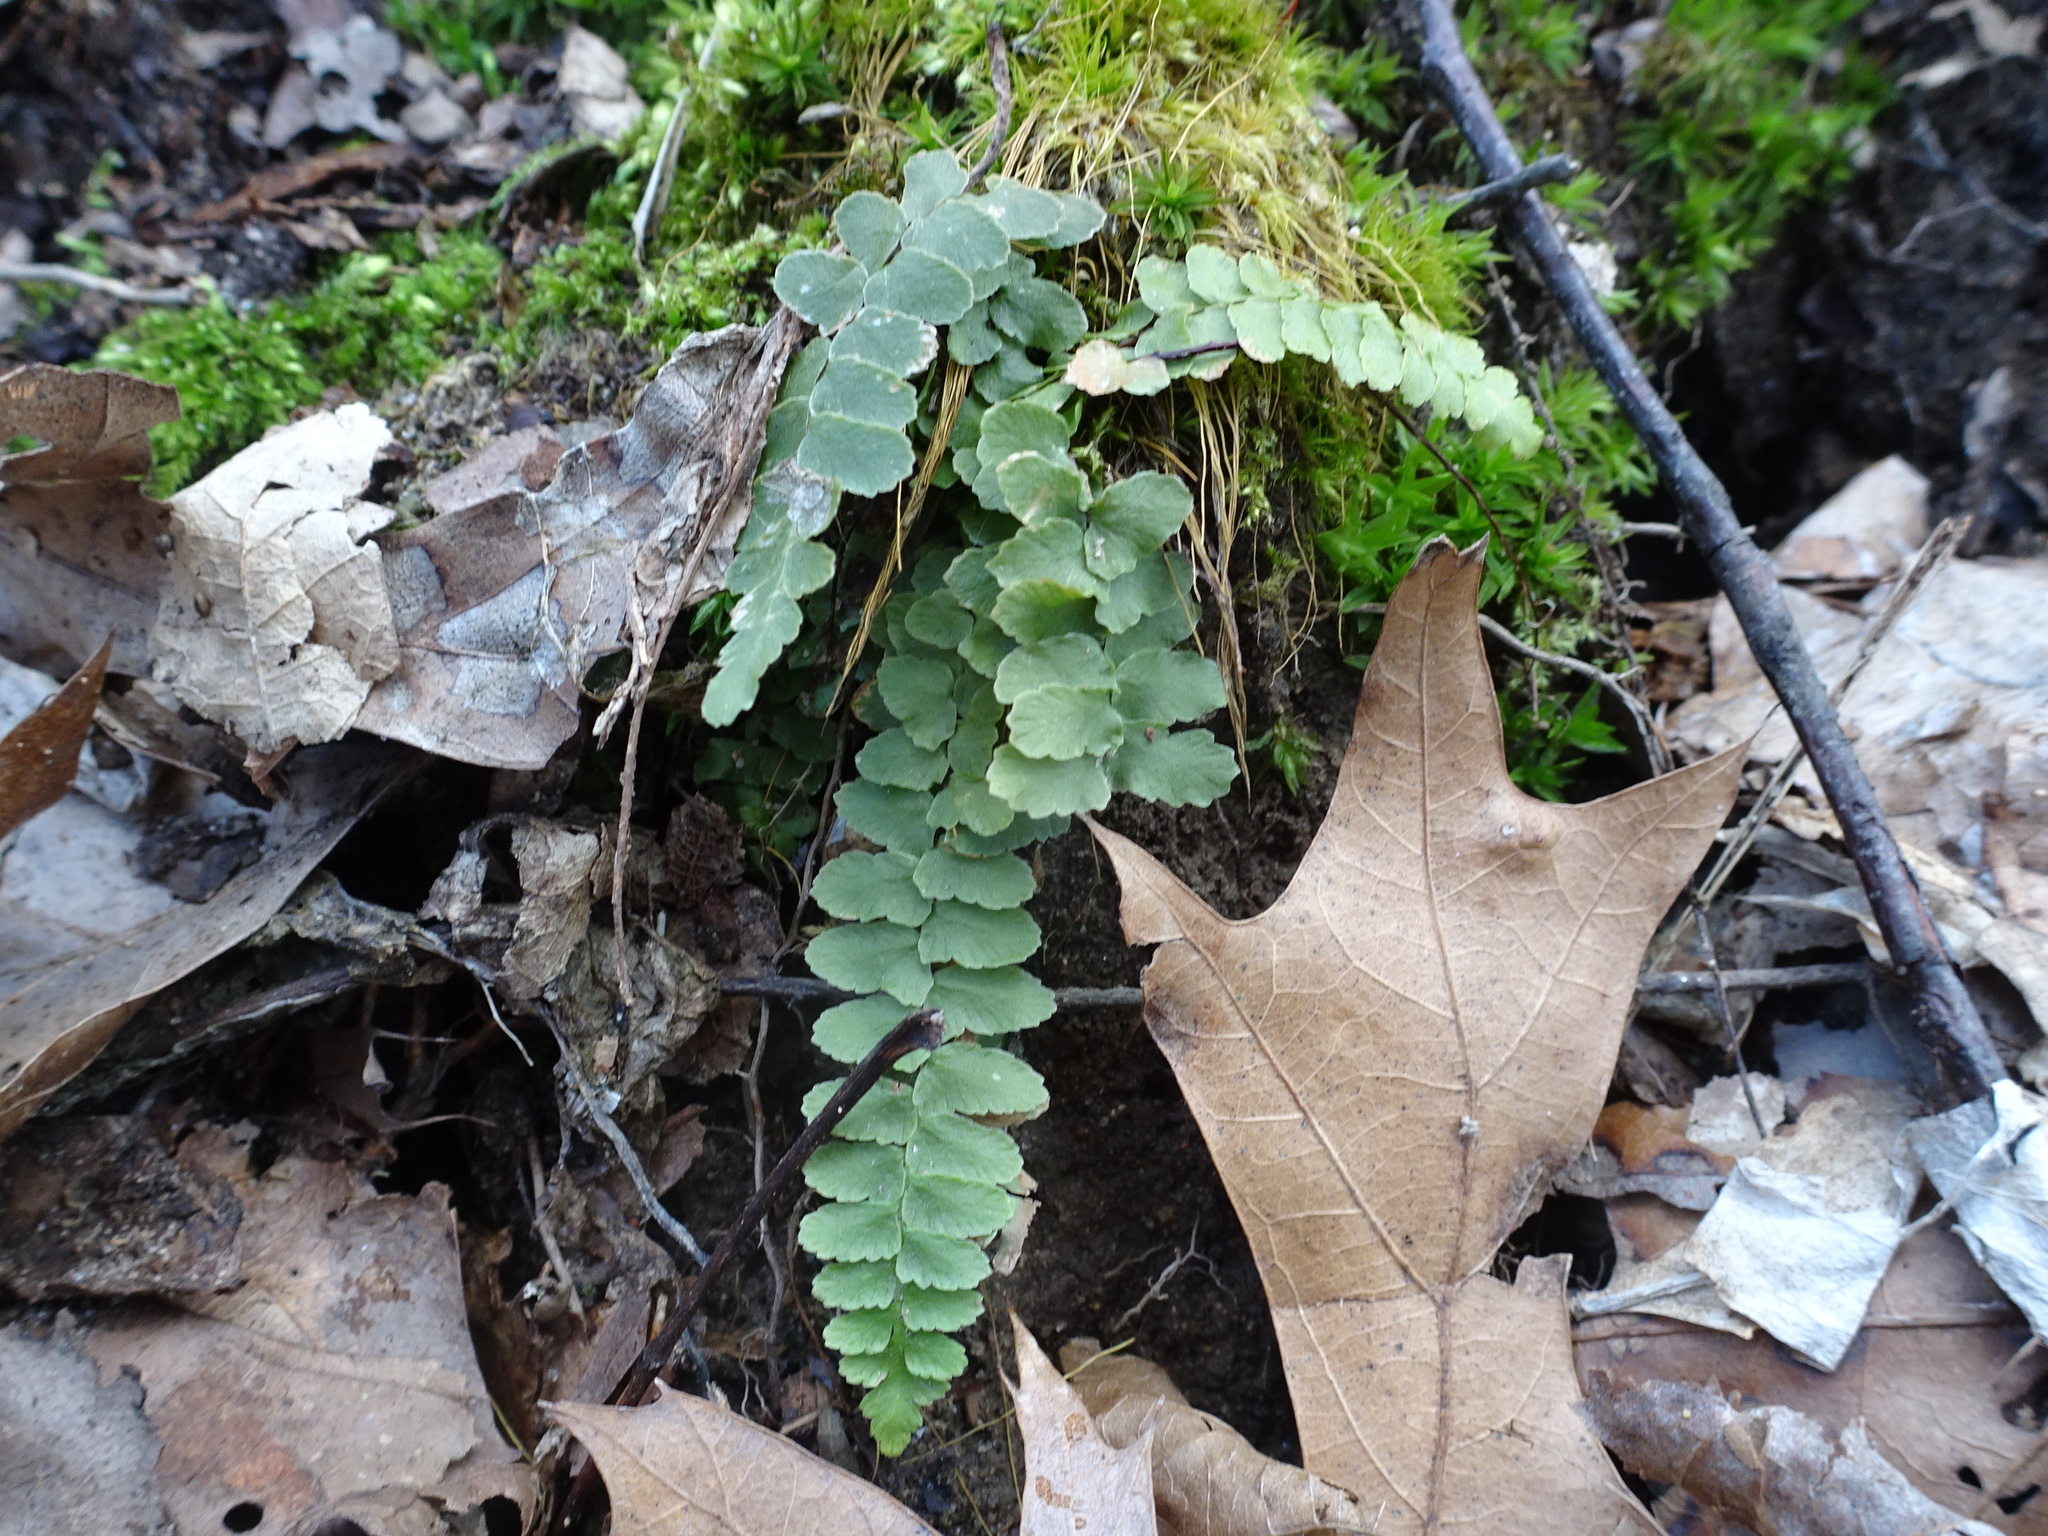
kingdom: Plantae
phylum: Tracheophyta
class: Polypodiopsida
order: Polypodiales
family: Aspleniaceae
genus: Asplenium
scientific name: Asplenium platyneuron
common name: Ebony spleenwort
